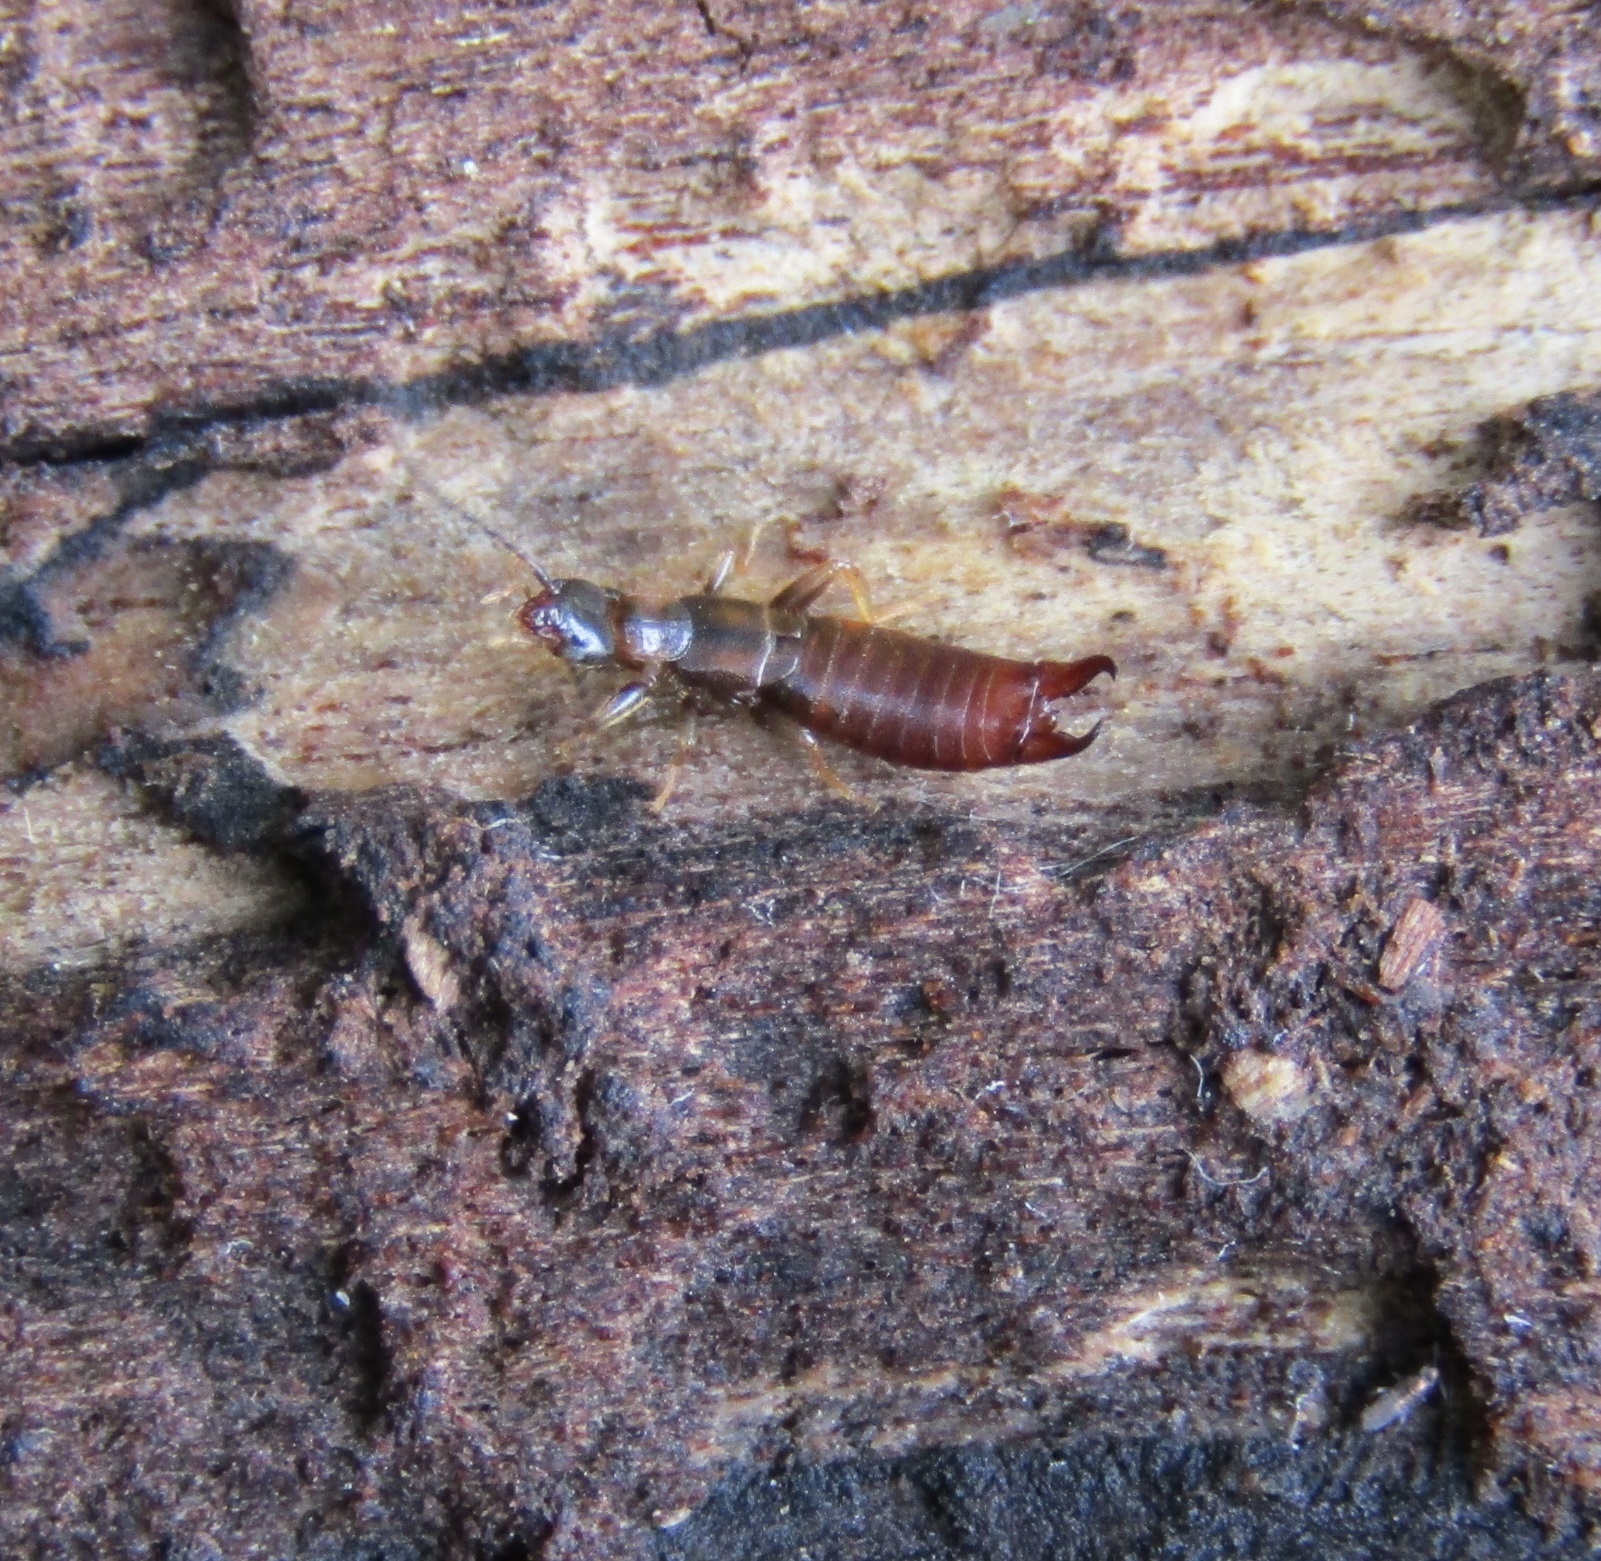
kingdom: Animalia
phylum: Arthropoda
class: Insecta
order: Dermaptera
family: Spongiphoridae
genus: Spirolabia
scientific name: Spirolabia kermadecensis
